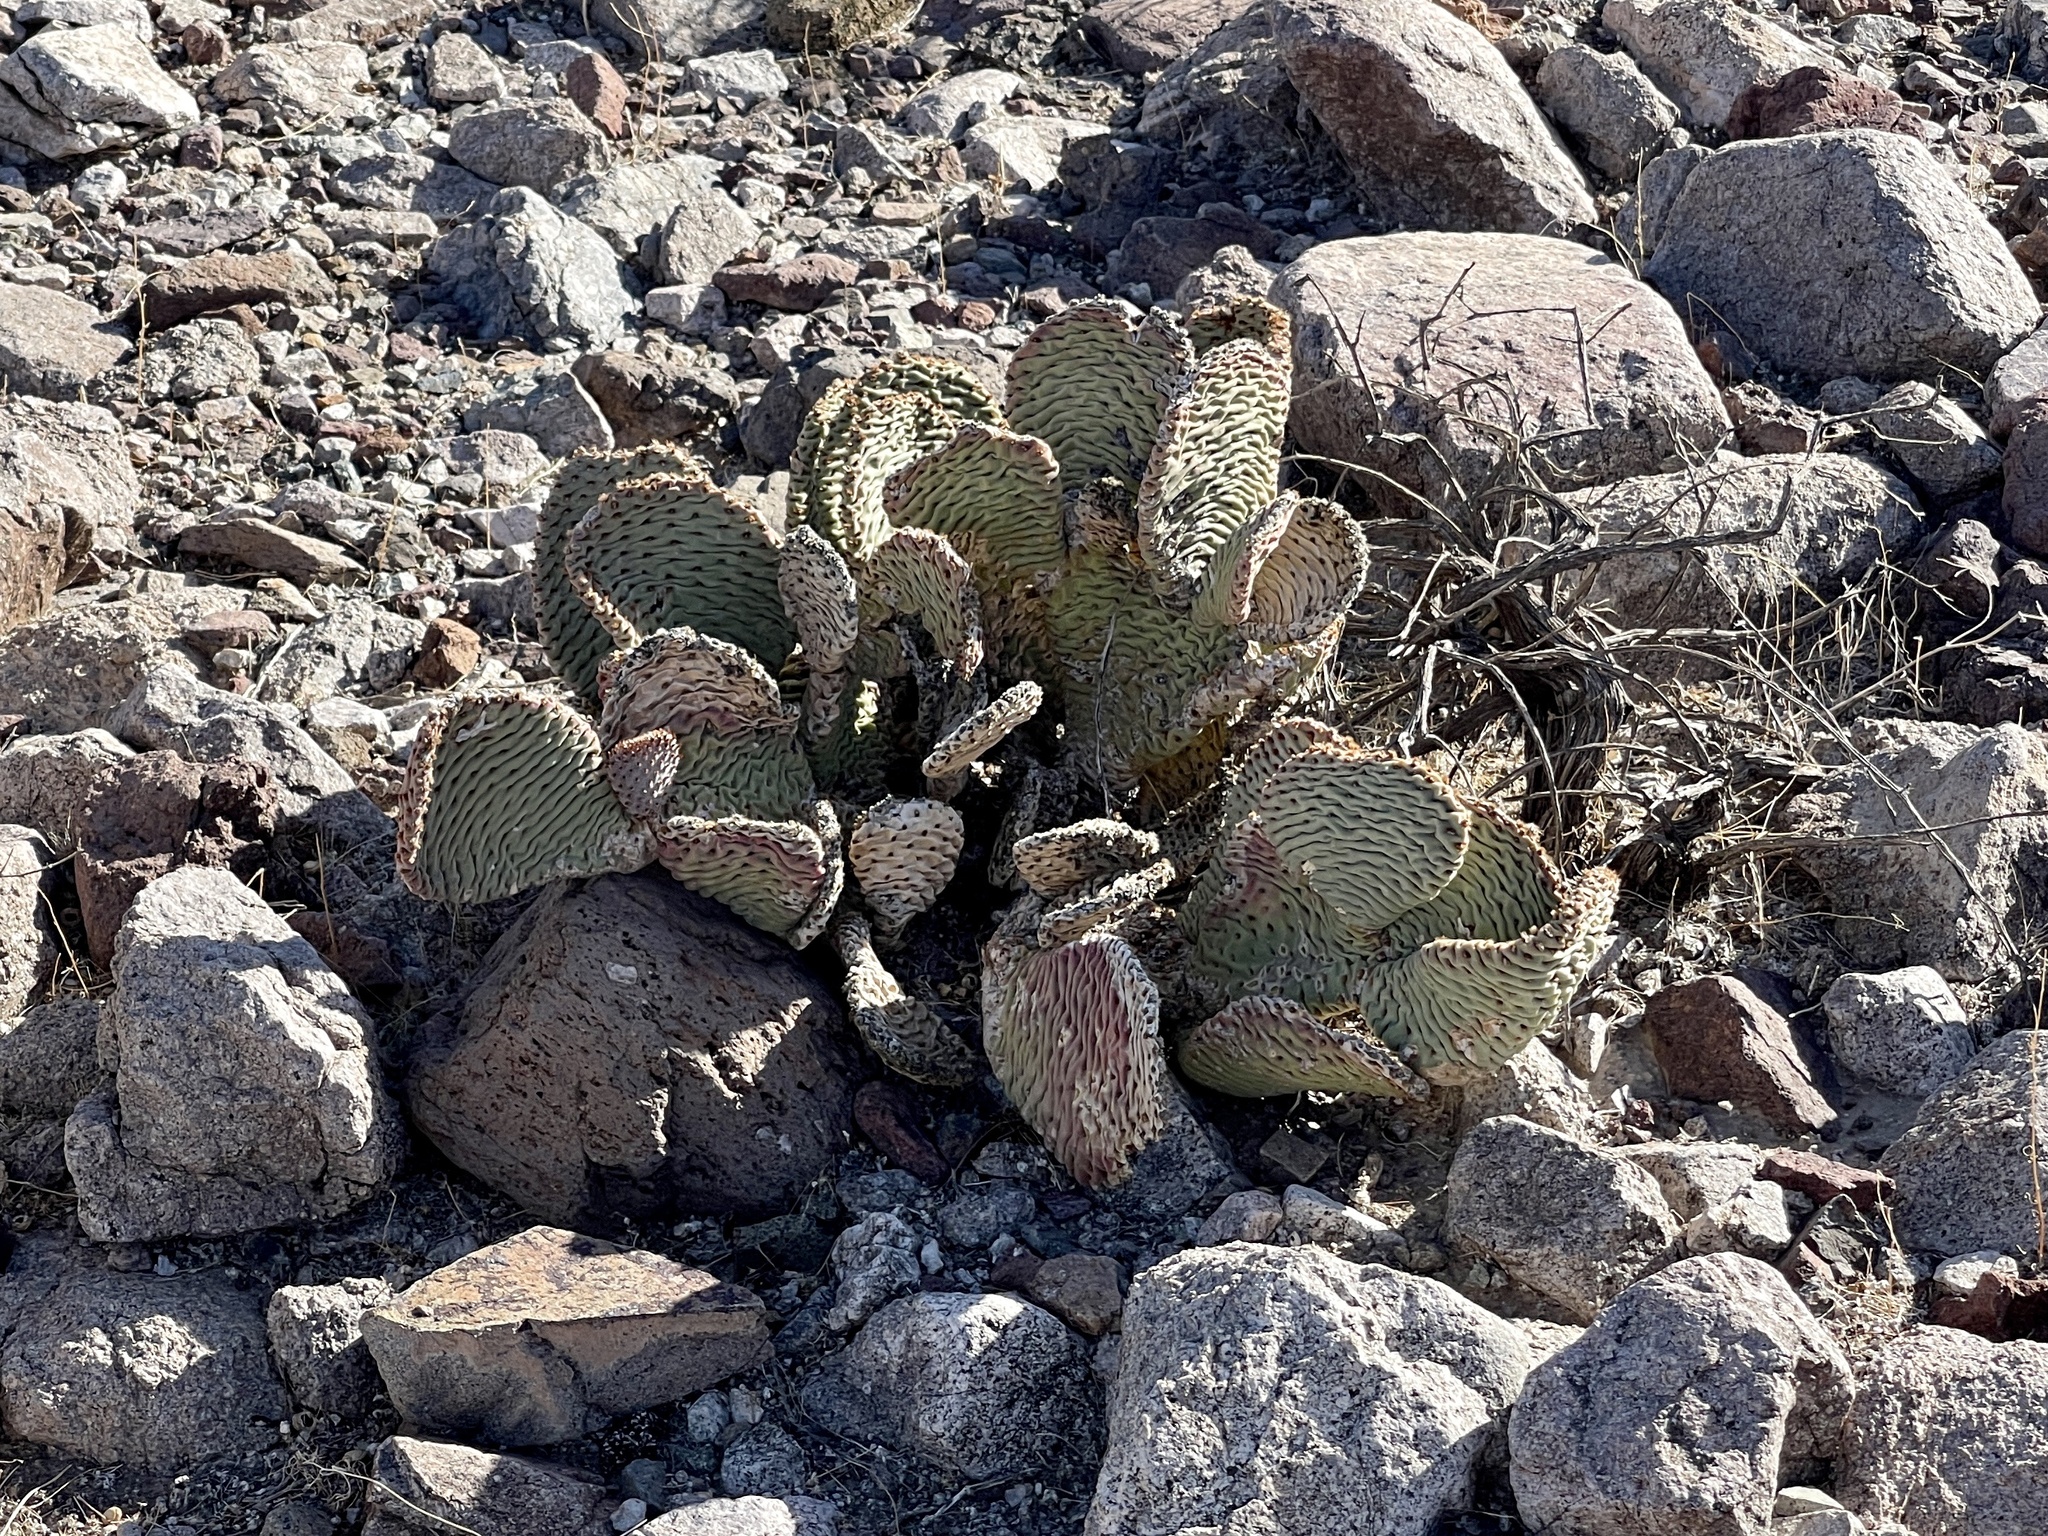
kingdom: Plantae
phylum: Tracheophyta
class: Magnoliopsida
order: Caryophyllales
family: Cactaceae
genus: Opuntia
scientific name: Opuntia basilaris
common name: Beavertail prickly-pear
